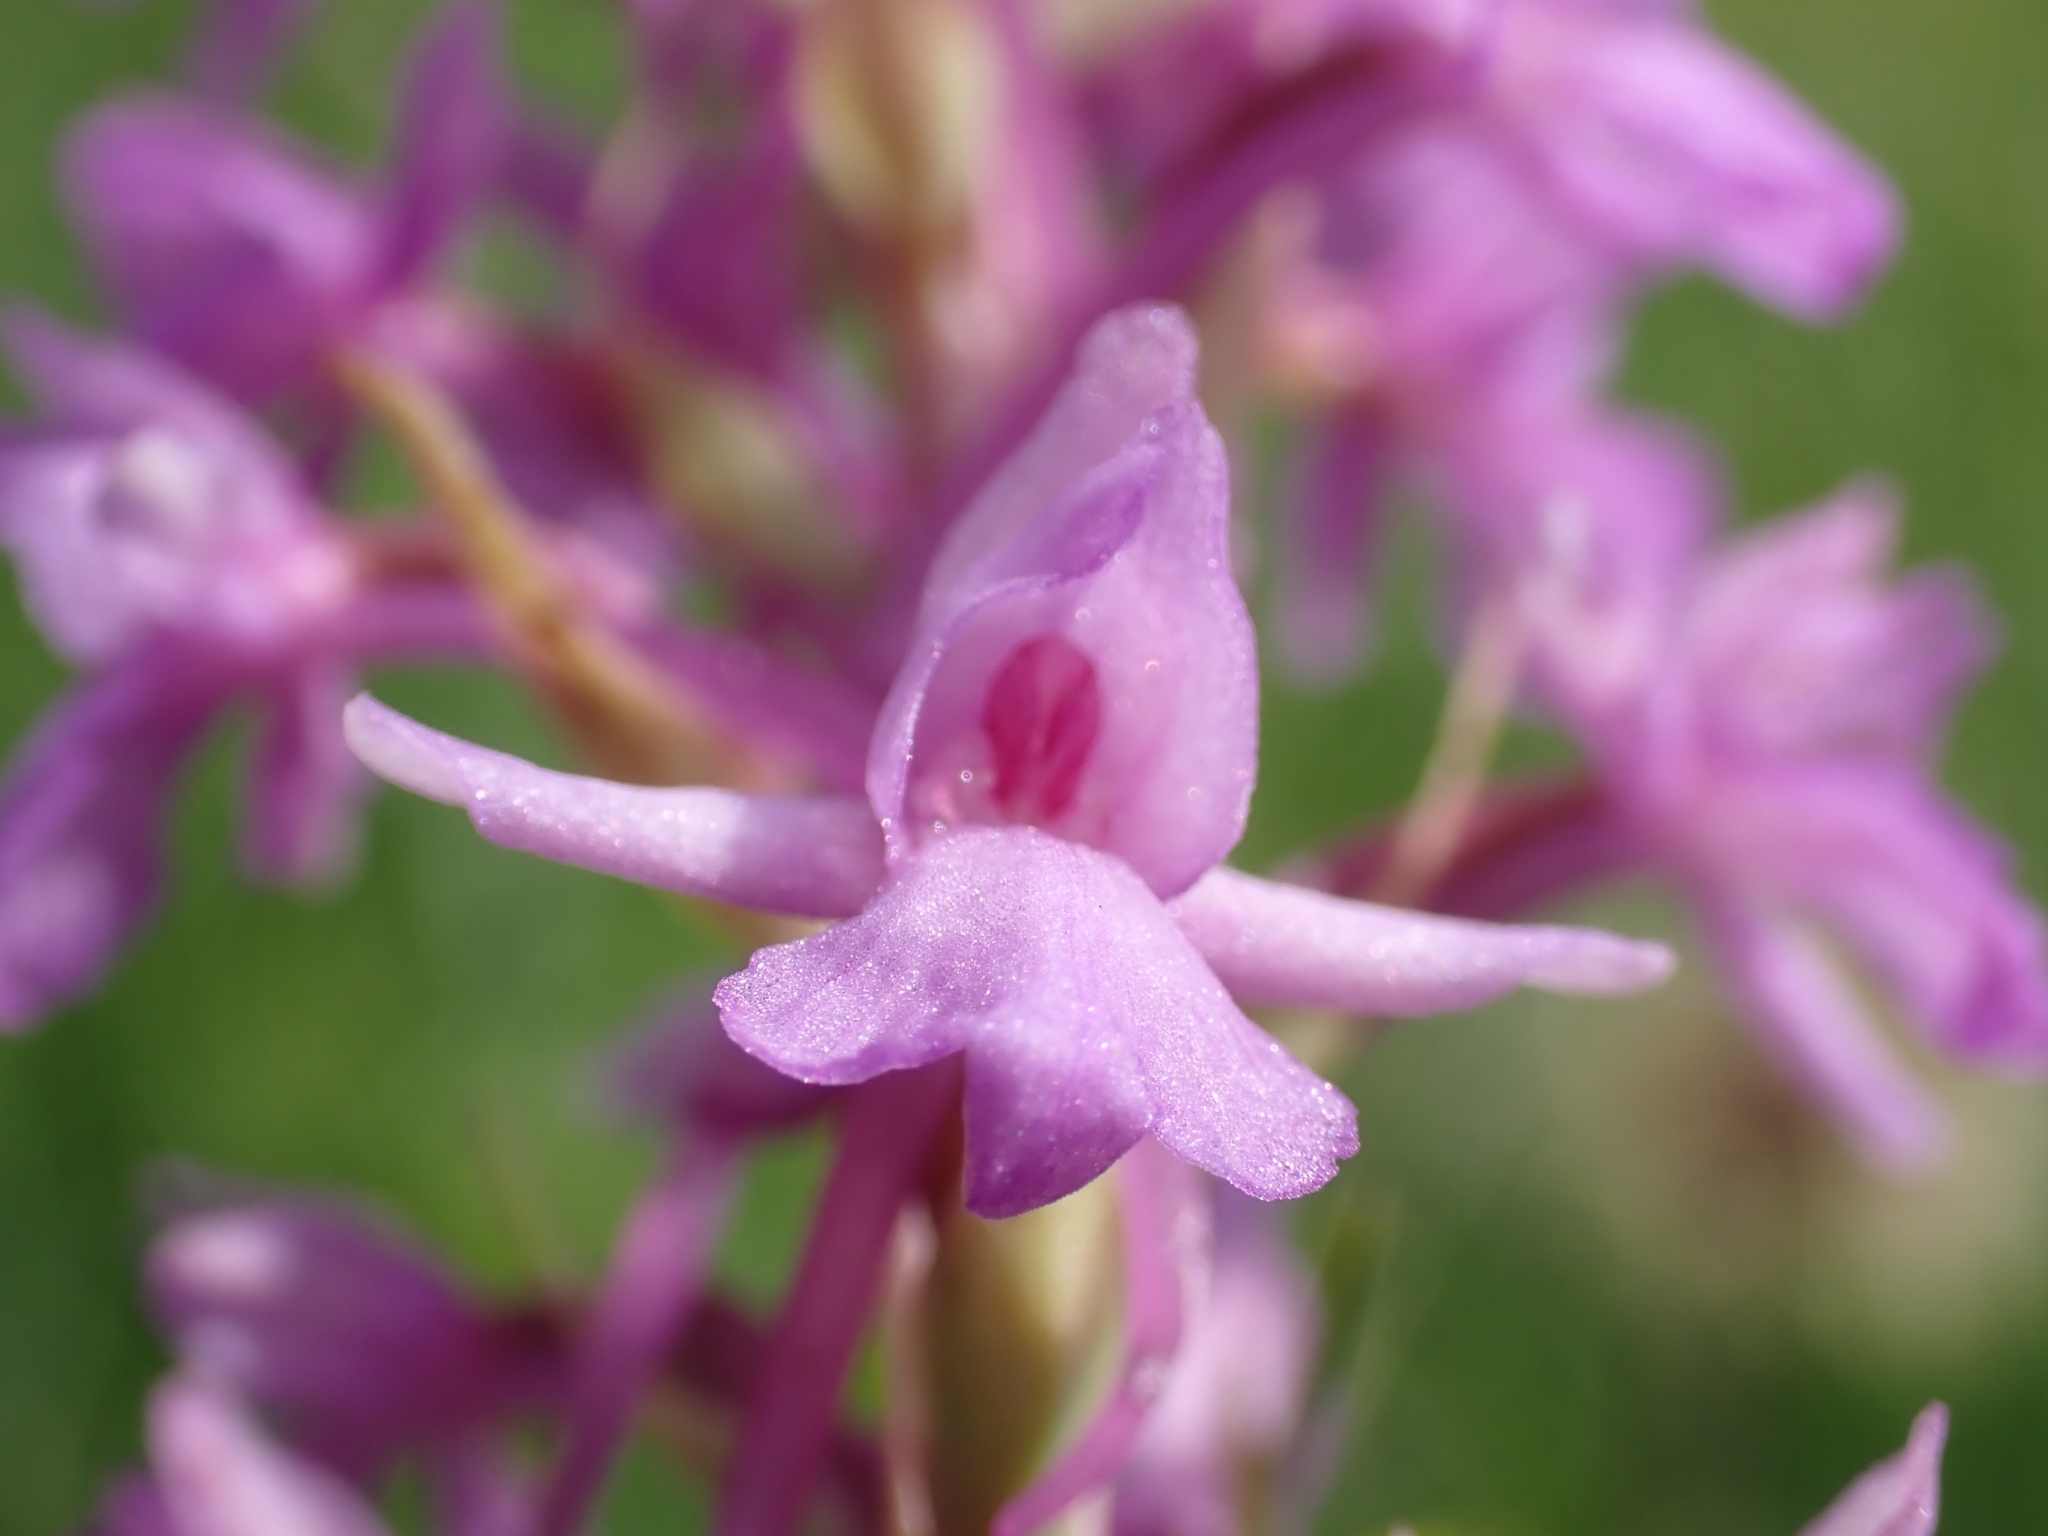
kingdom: Plantae
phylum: Tracheophyta
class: Liliopsida
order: Asparagales
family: Orchidaceae
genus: Gymnadenia
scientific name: Gymnadenia conopsea
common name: Fragrant orchid
